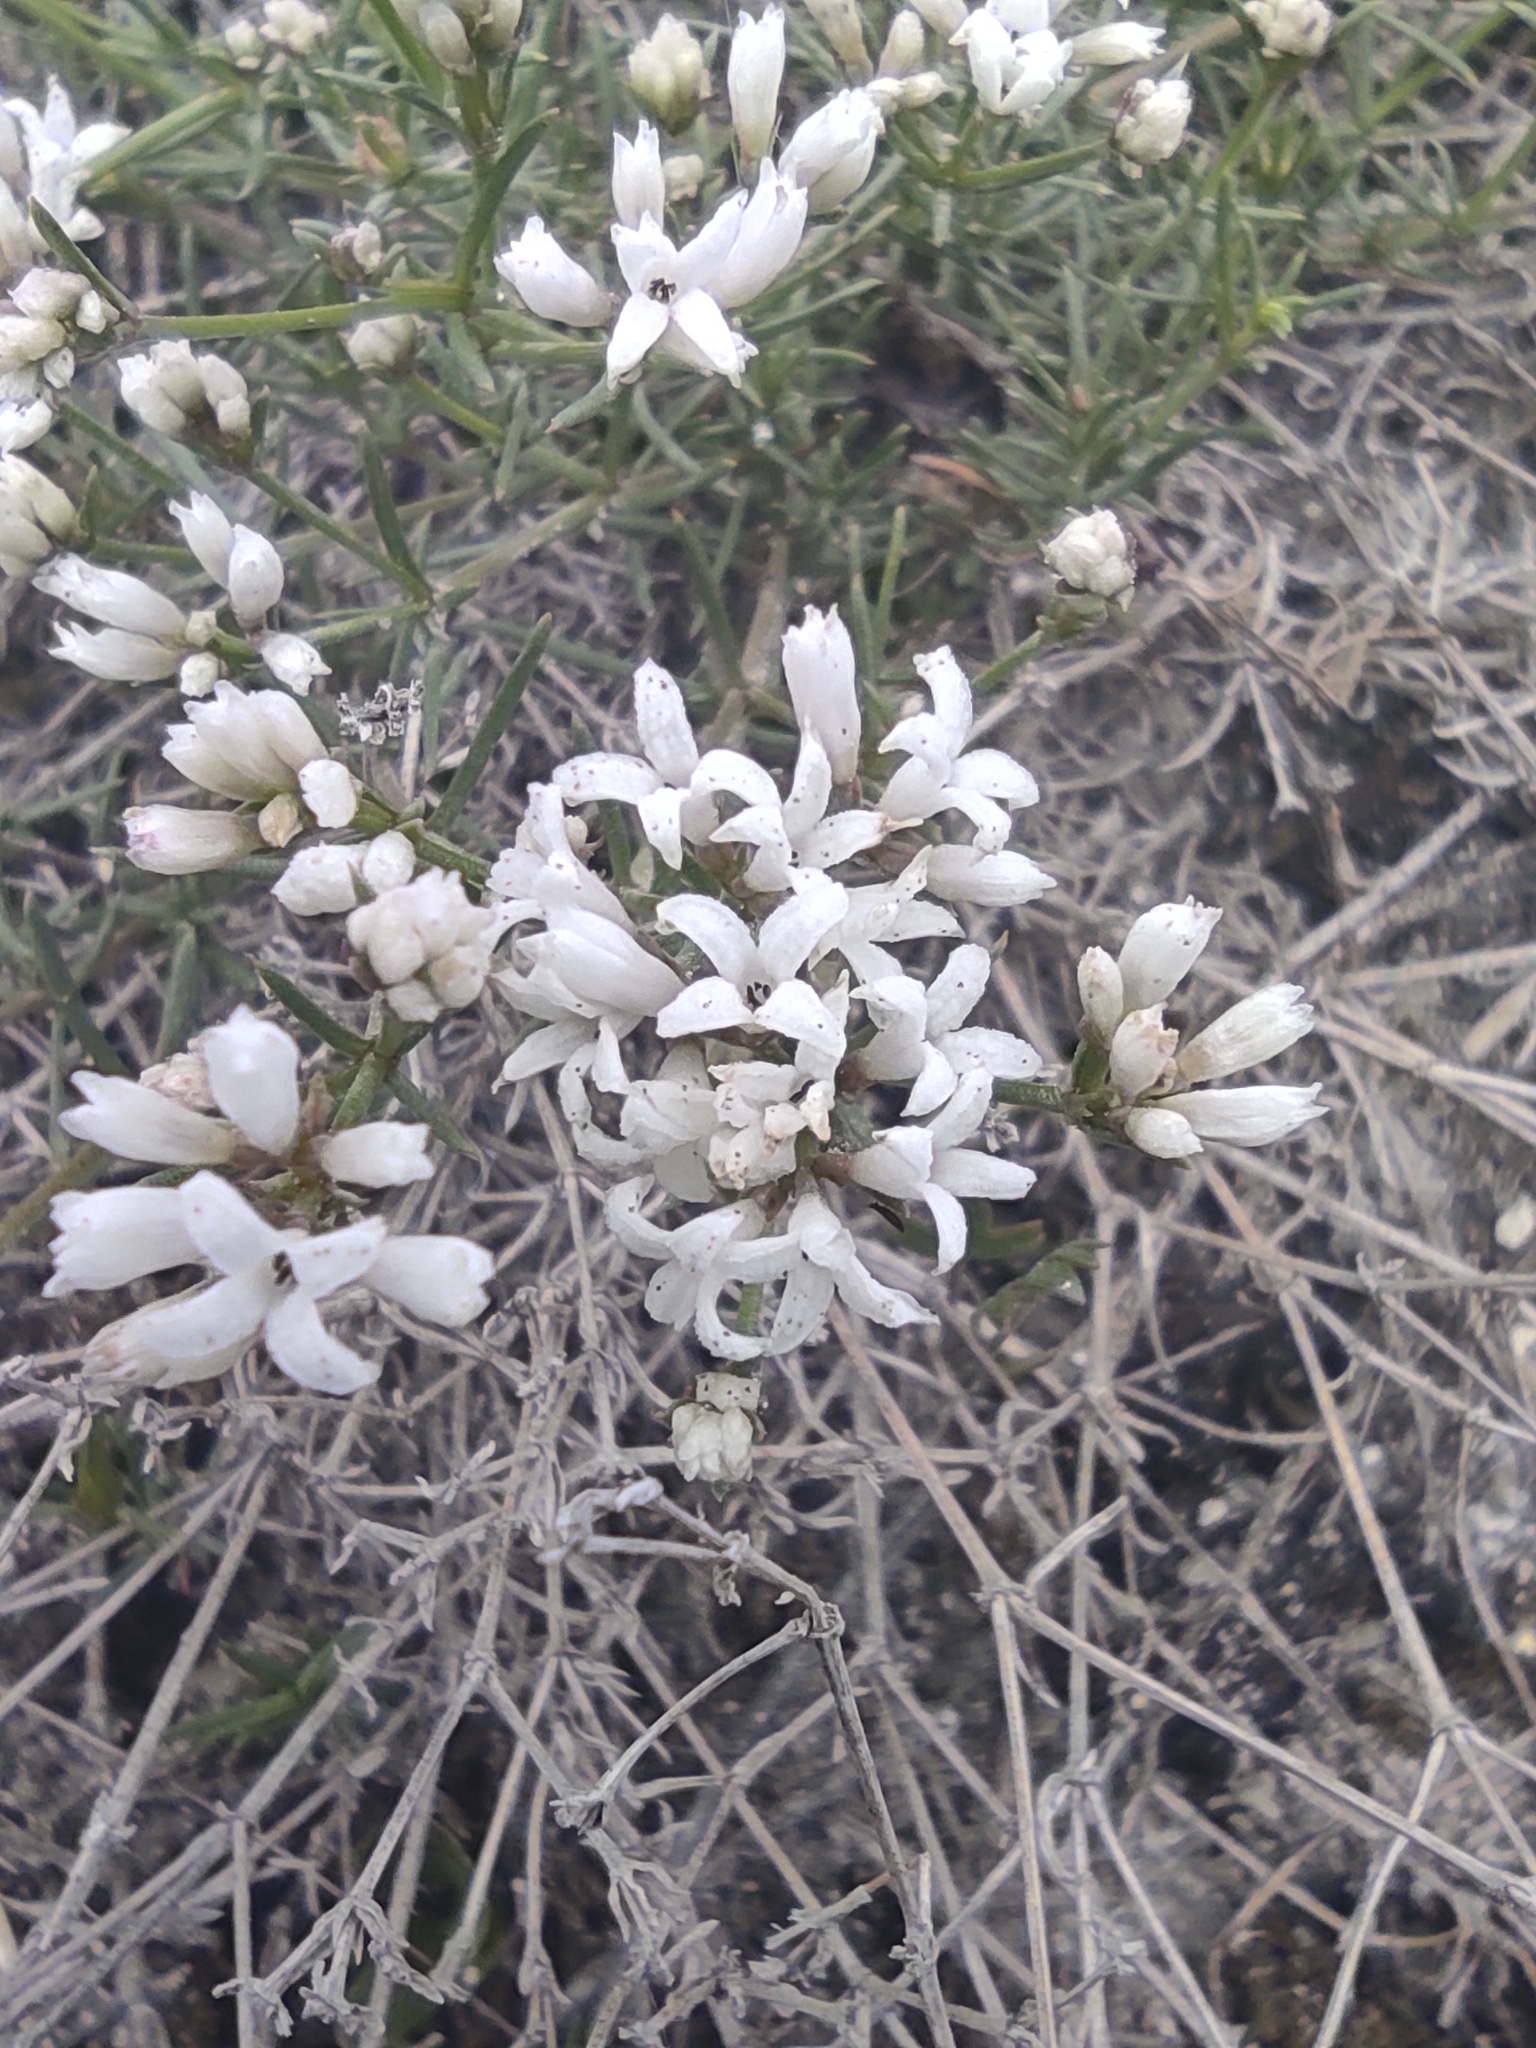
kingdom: Plantae
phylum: Tracheophyta
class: Magnoliopsida
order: Gentianales
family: Rubiaceae
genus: Cynanchica
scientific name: Cynanchica tephrocarpa
